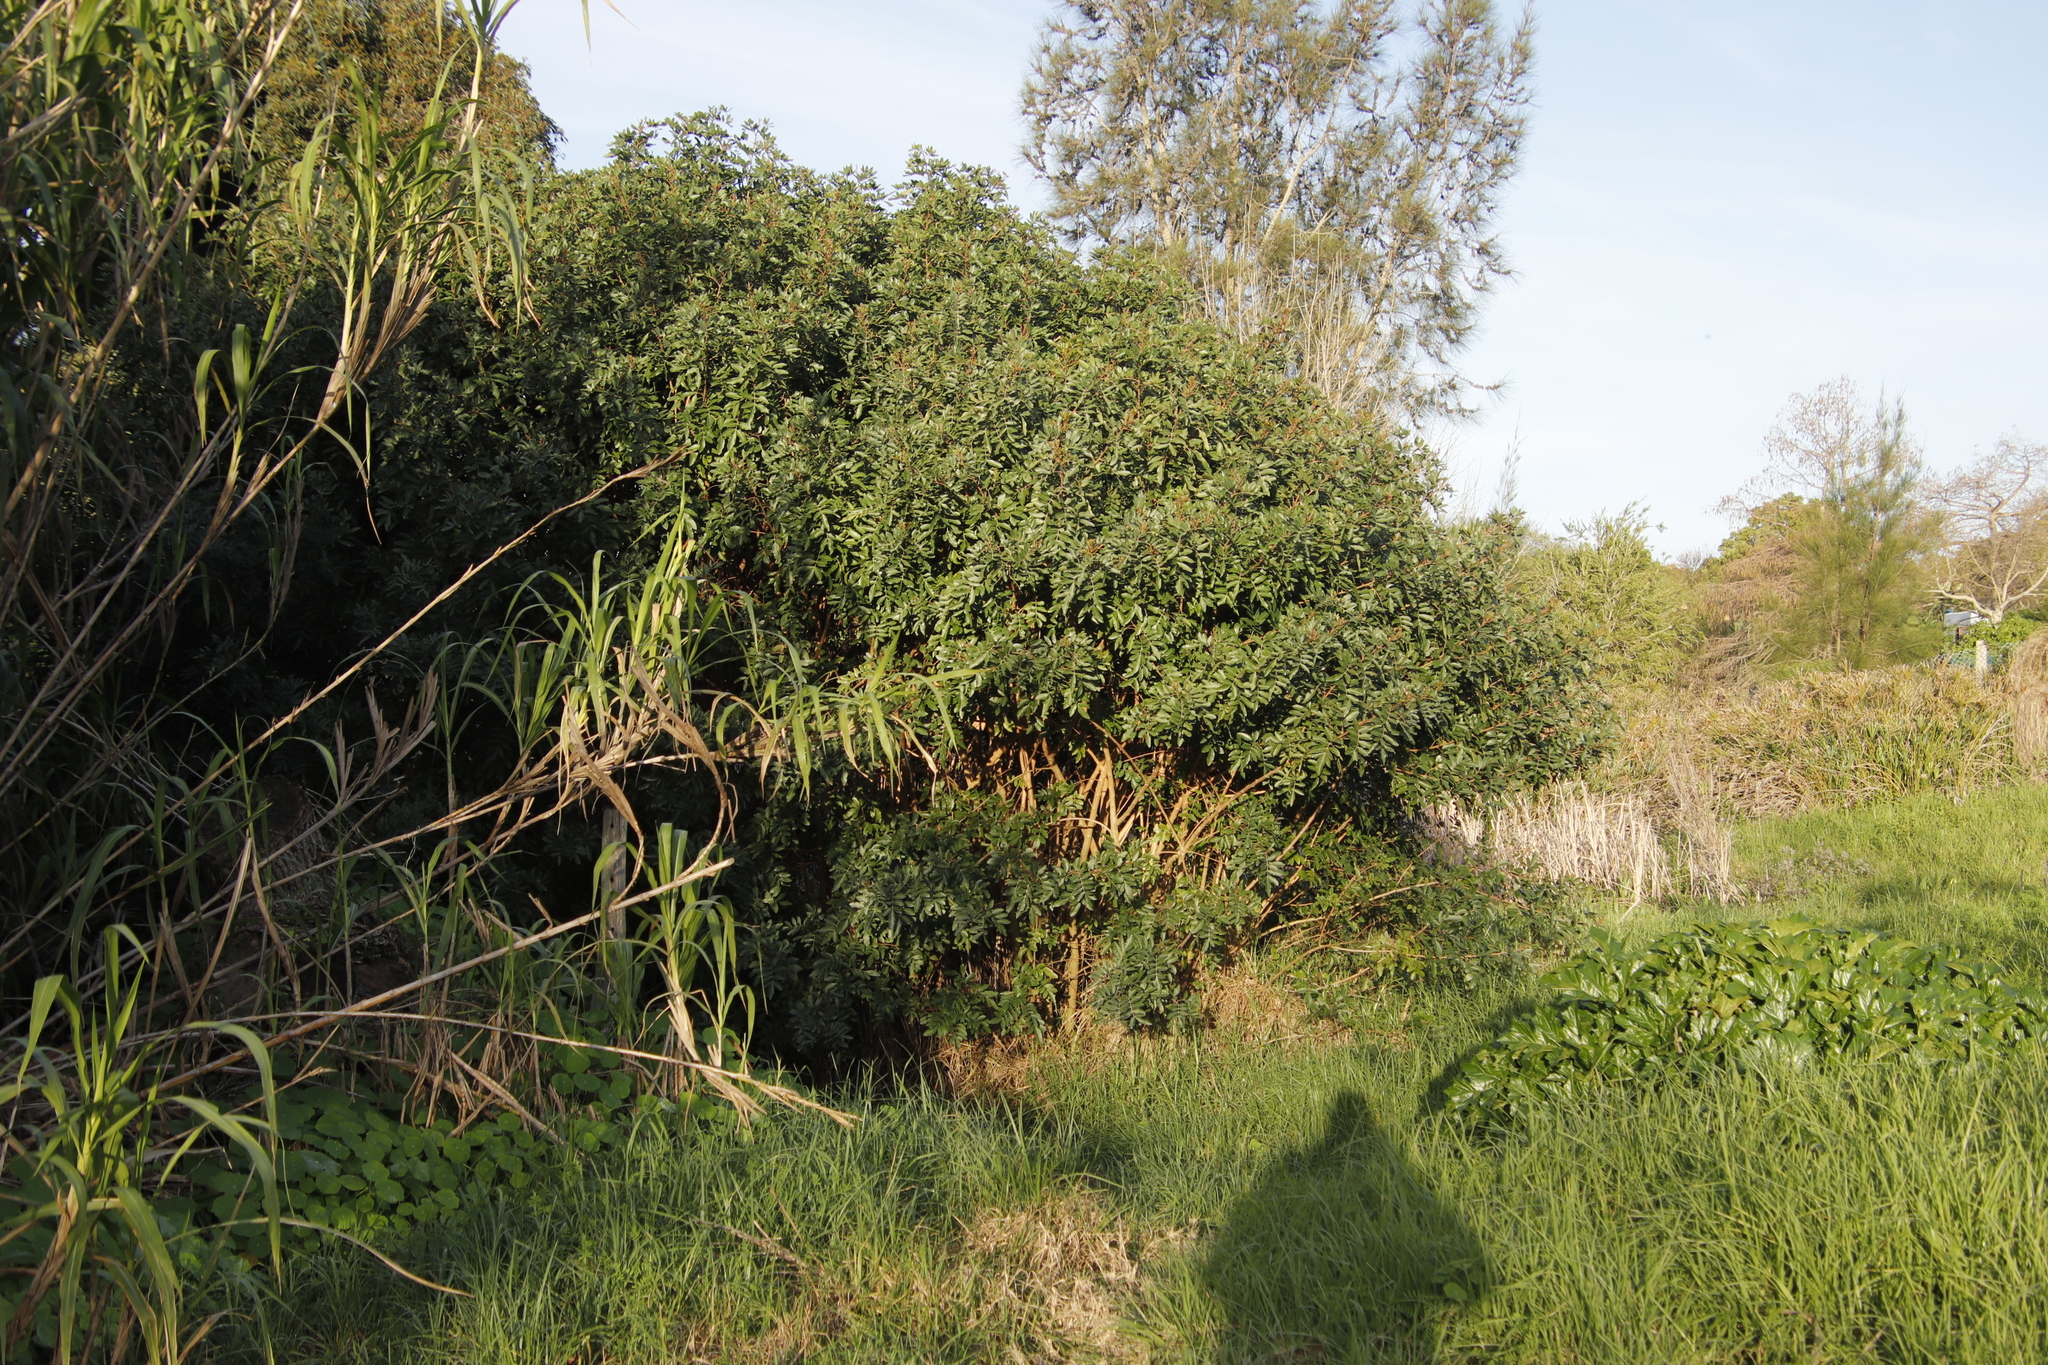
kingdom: Plantae
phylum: Tracheophyta
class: Magnoliopsida
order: Sapindales
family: Anacardiaceae
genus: Schinus
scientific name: Schinus terebinthifolia
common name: Brazilian peppertree
